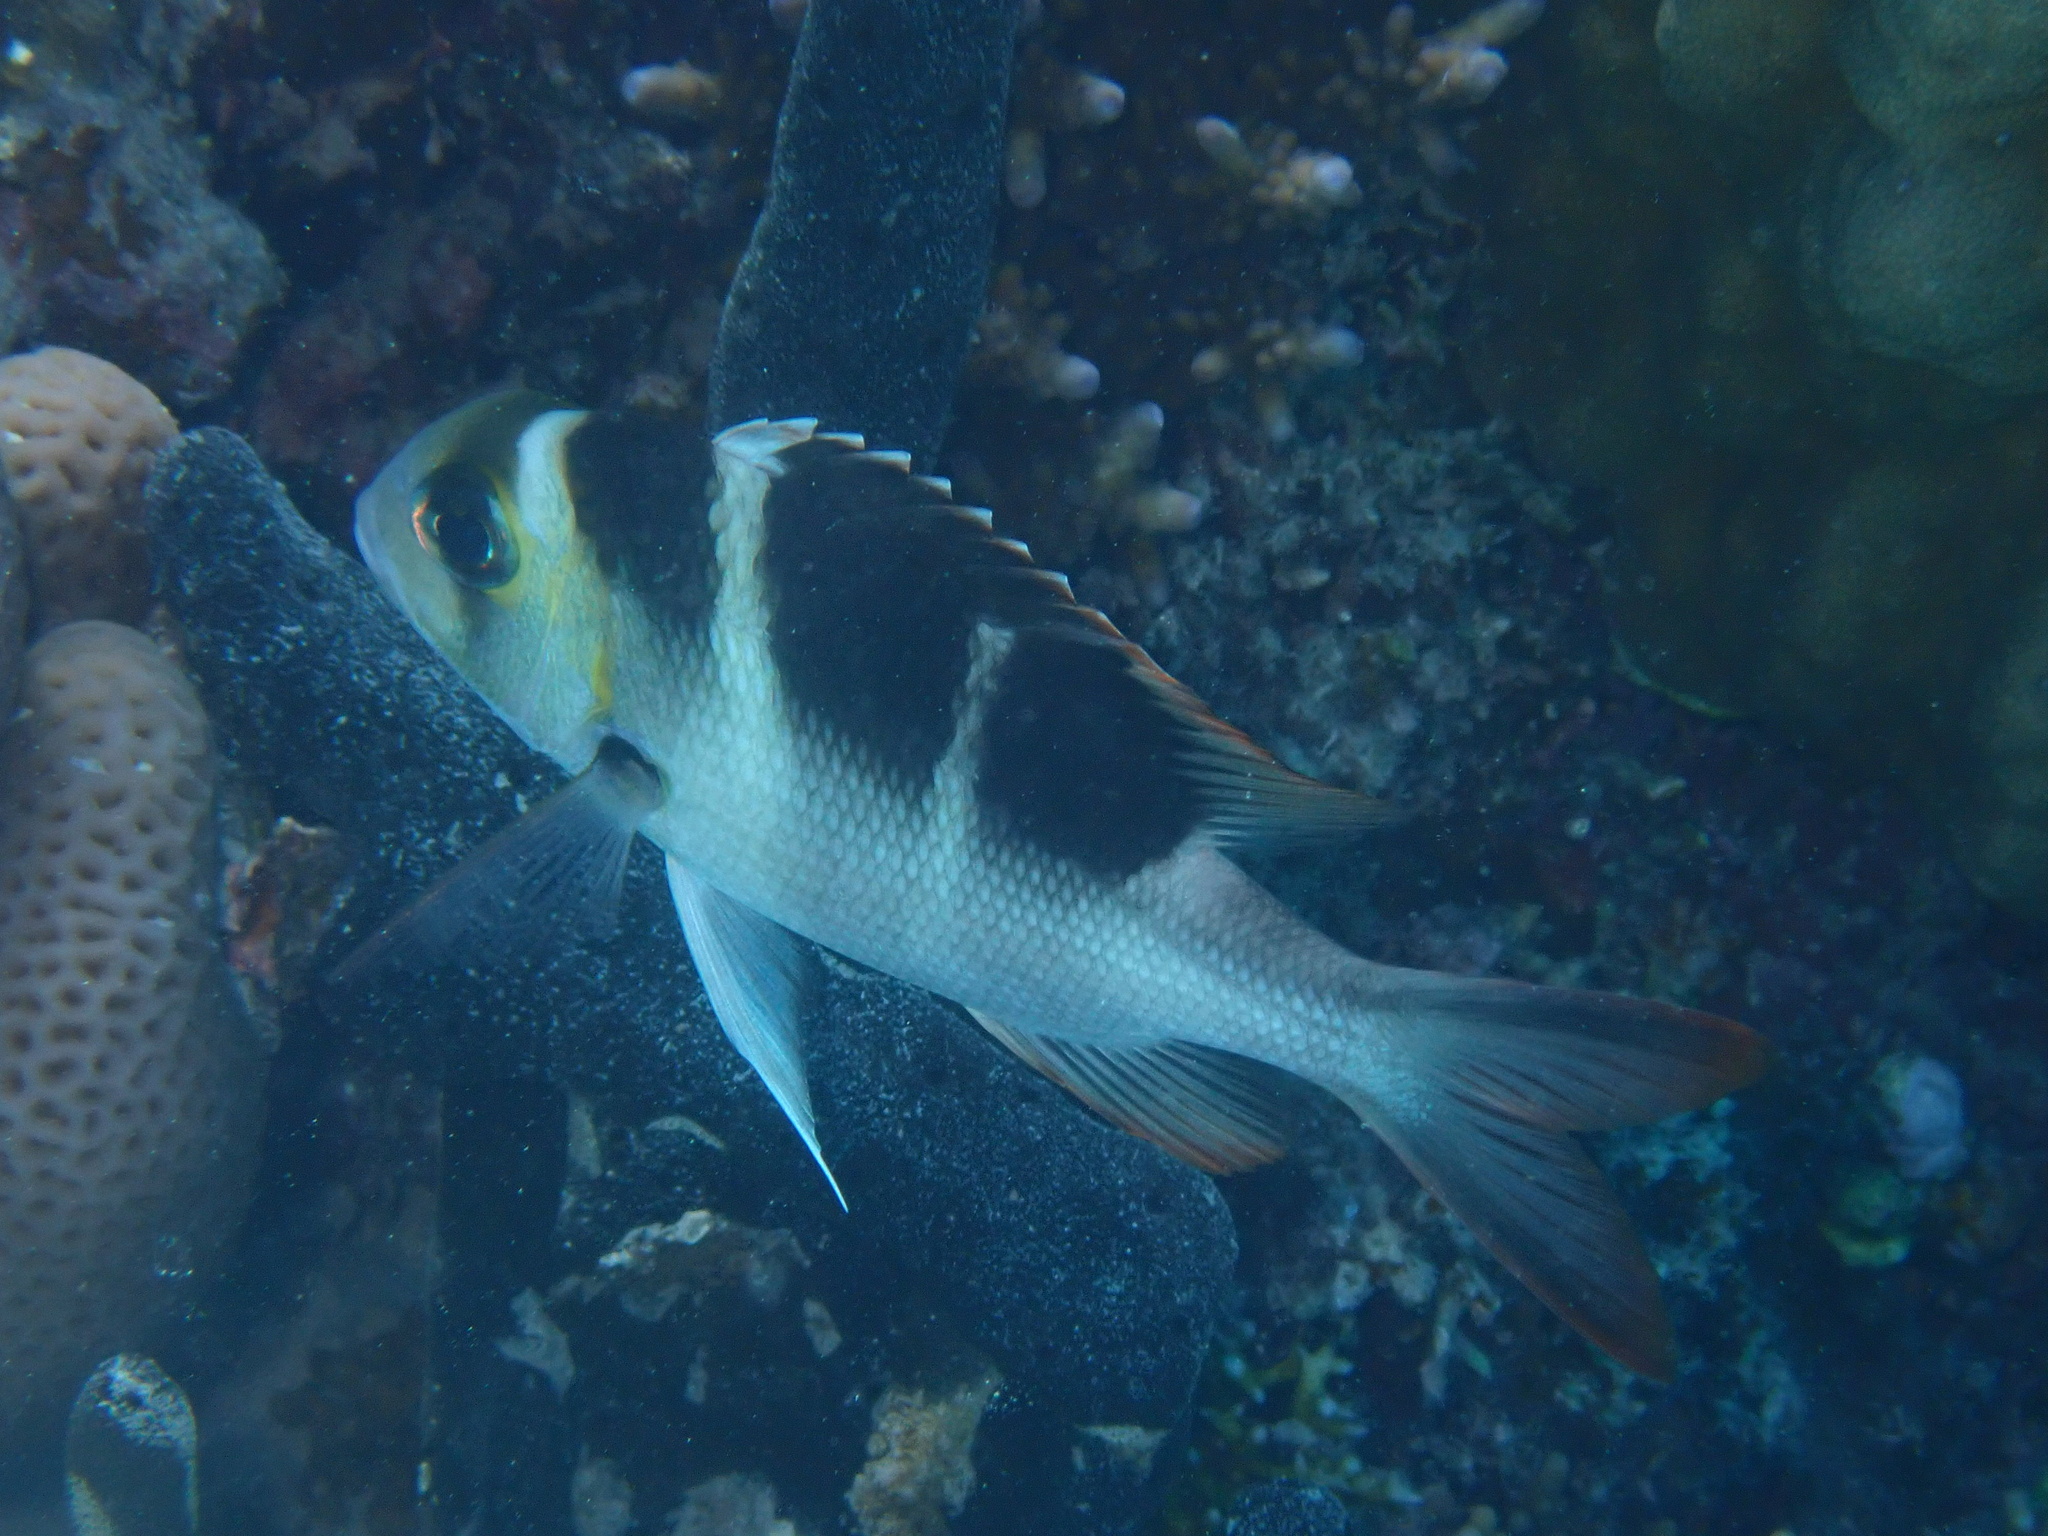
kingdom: Animalia
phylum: Chordata
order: Perciformes
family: Lethrinidae
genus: Monotaxis
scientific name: Monotaxis grandoculis
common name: Bigeye emperor
